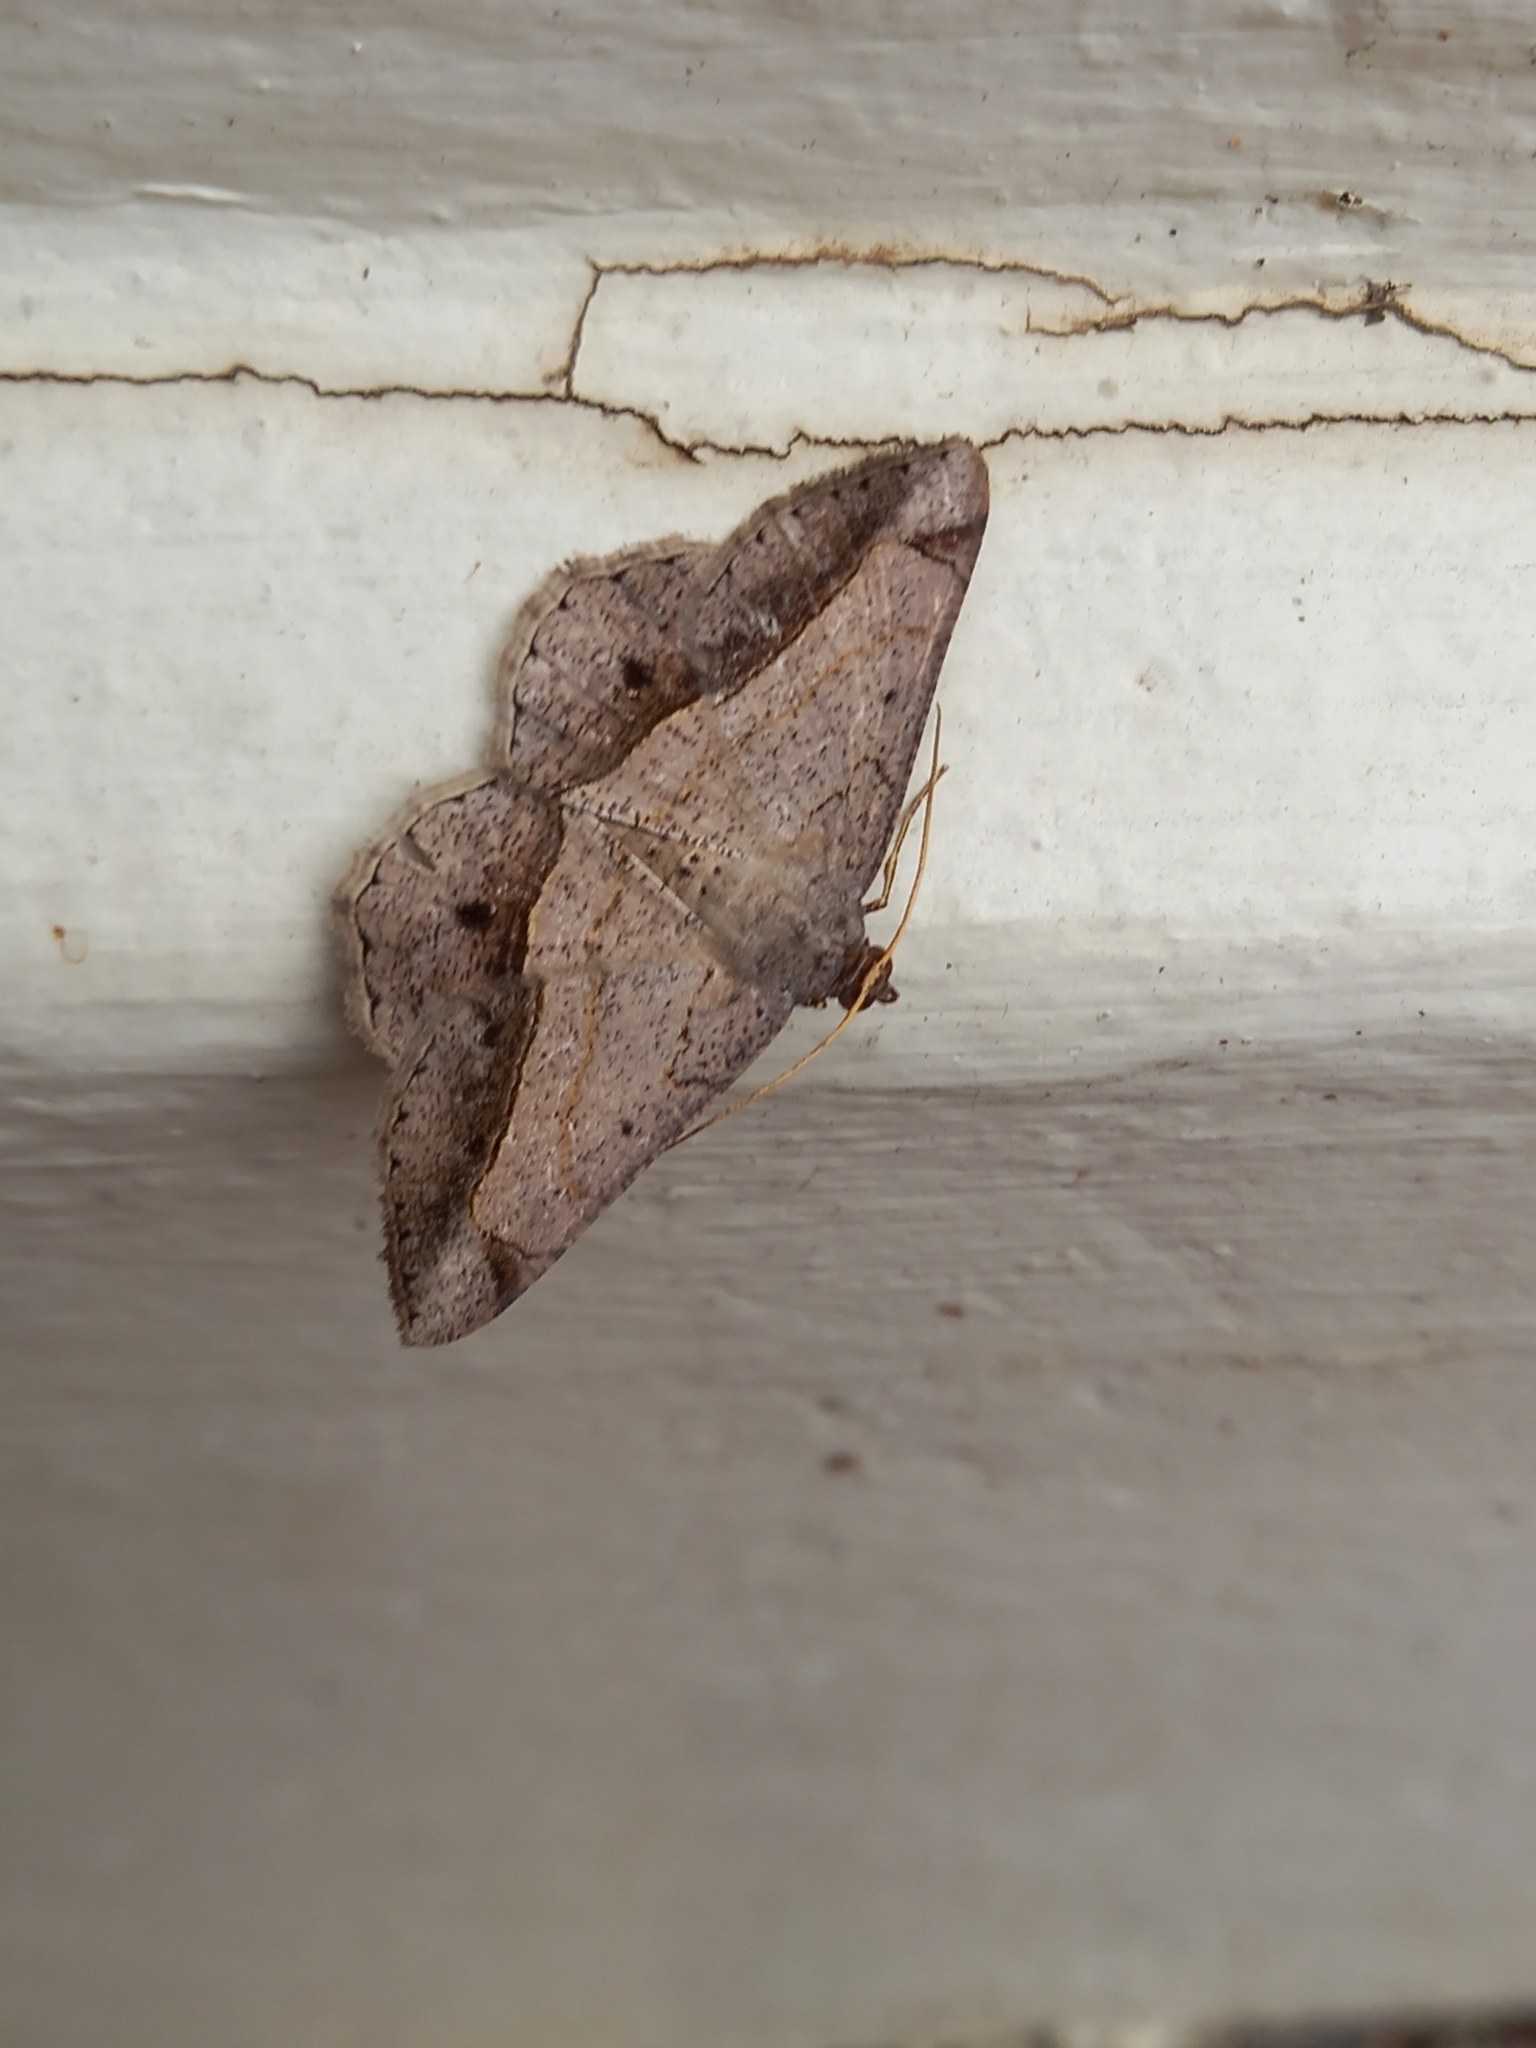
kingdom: Animalia
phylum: Arthropoda
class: Insecta
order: Lepidoptera
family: Geometridae
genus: Chiasmia
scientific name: Chiasmia rectistriaria
